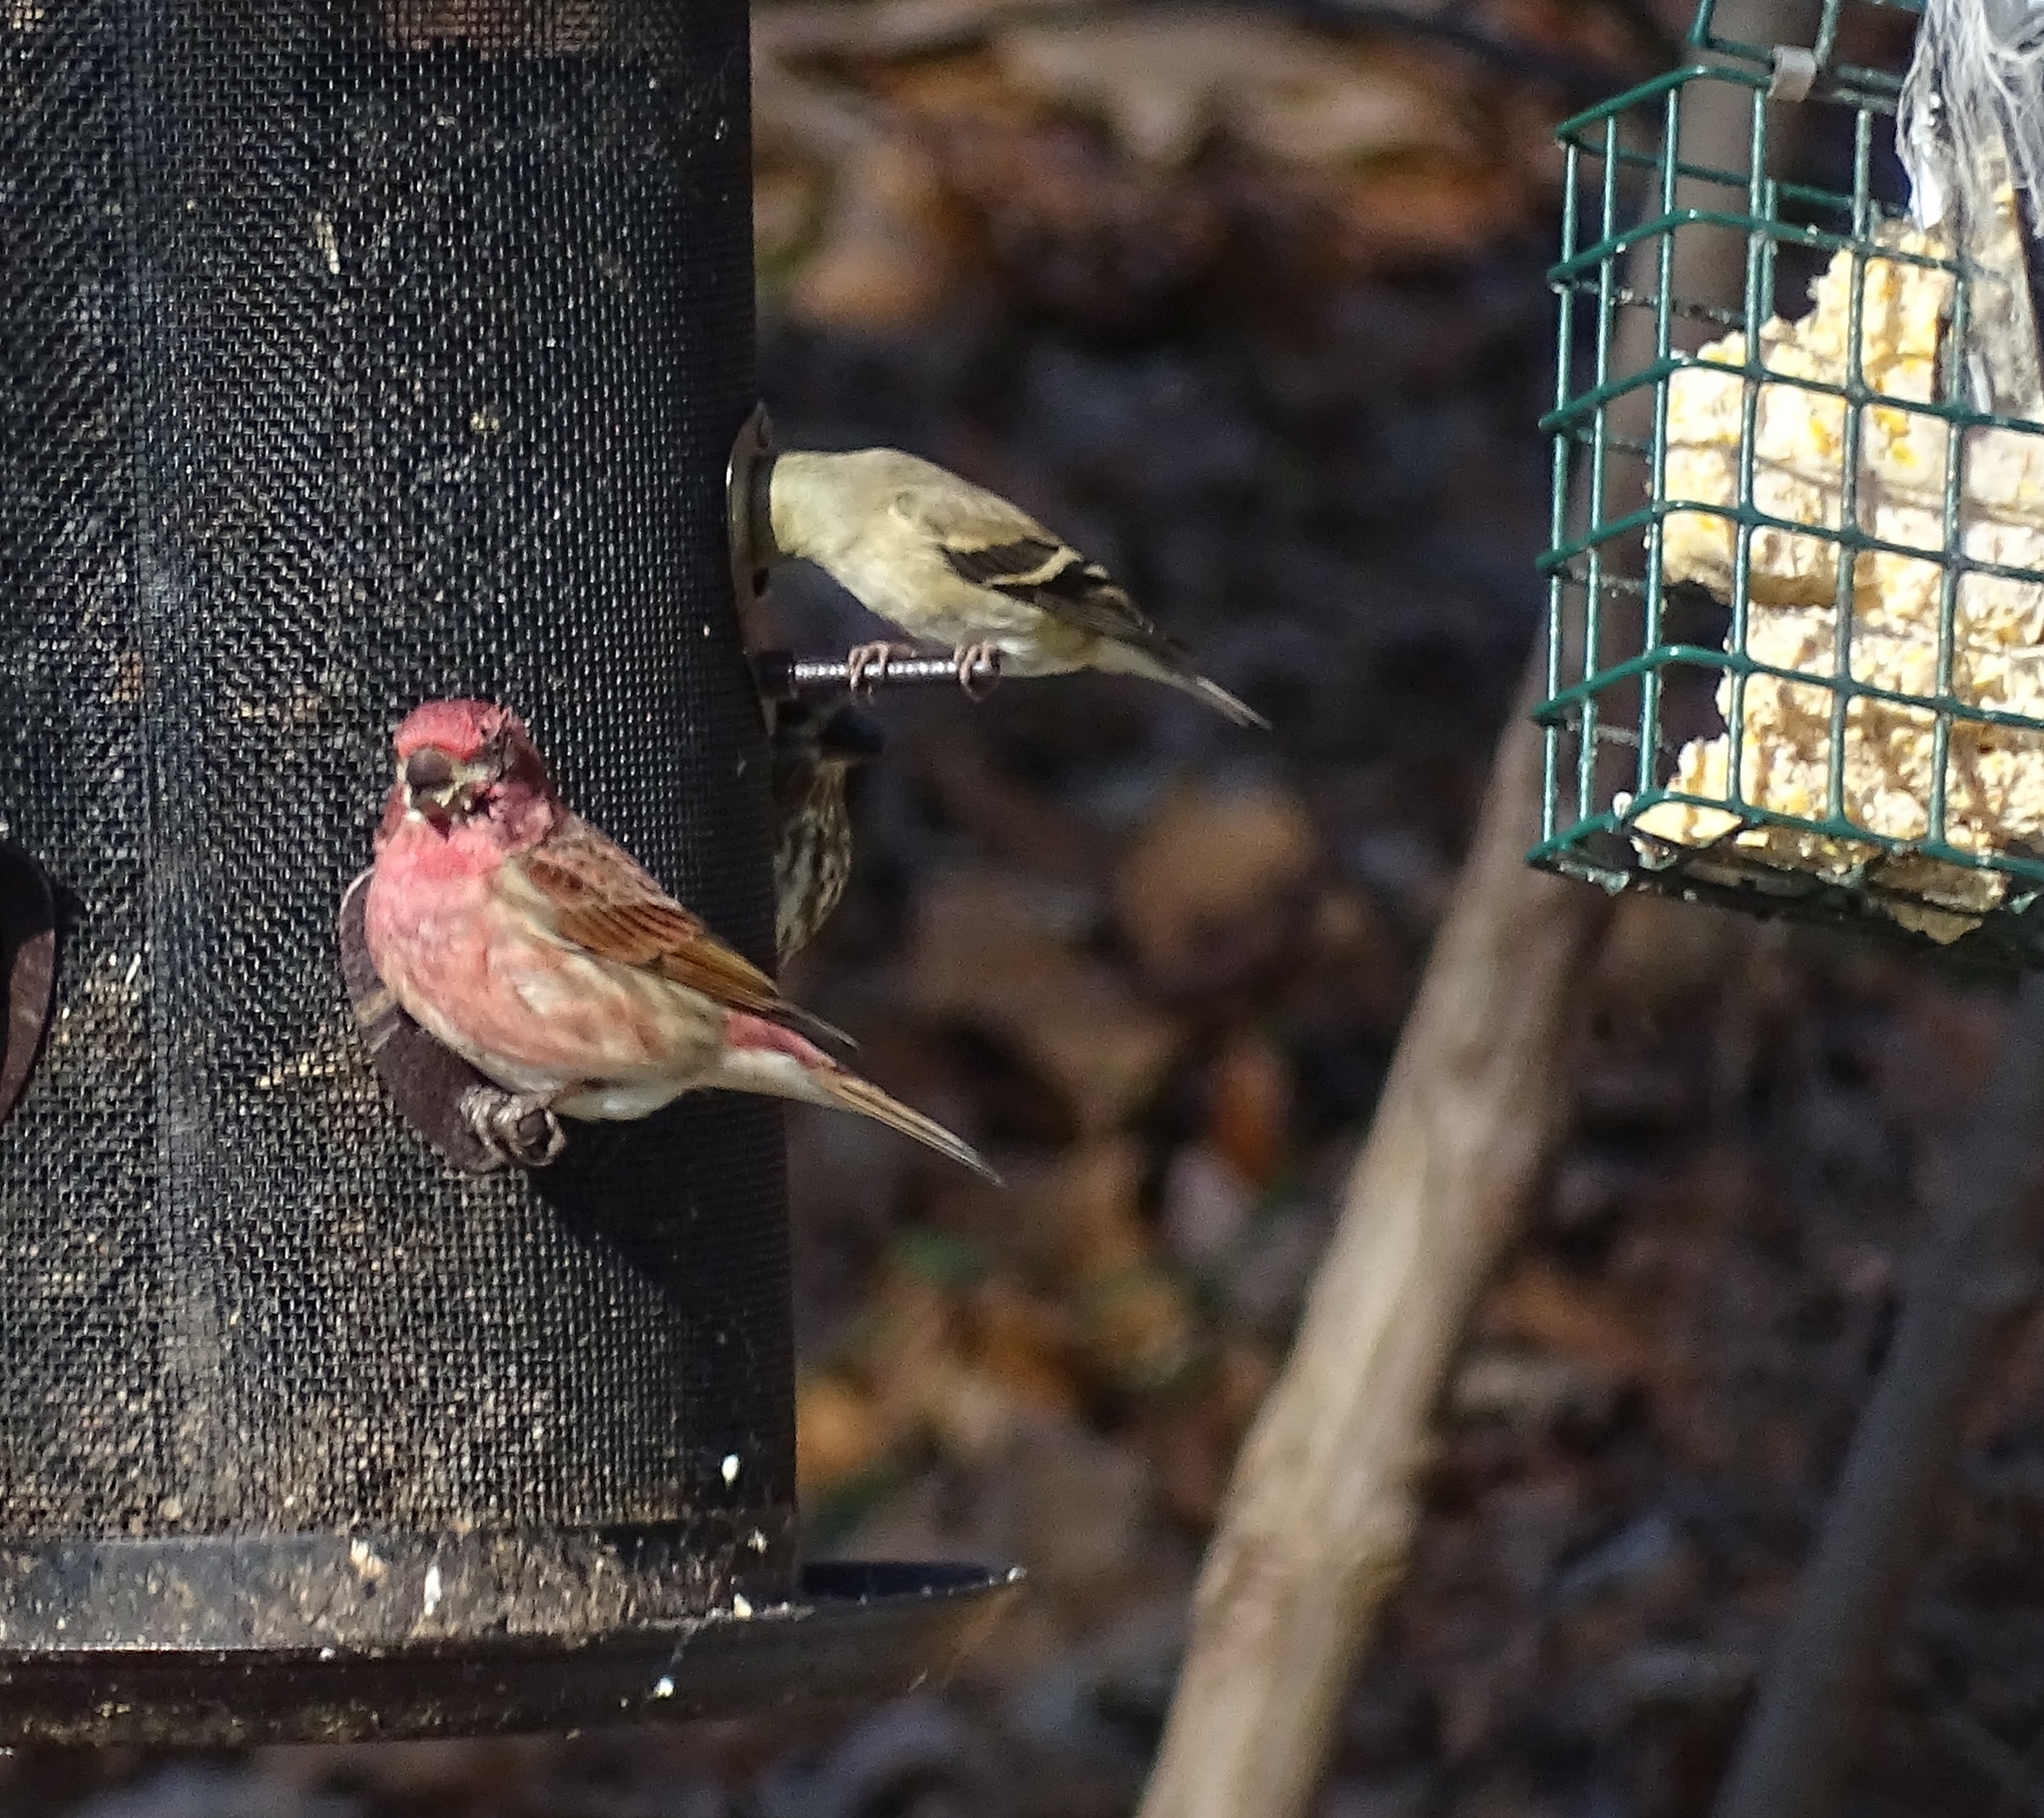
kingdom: Animalia
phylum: Chordata
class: Aves
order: Passeriformes
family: Fringillidae
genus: Haemorhous
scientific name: Haemorhous purpureus
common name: Purple finch
